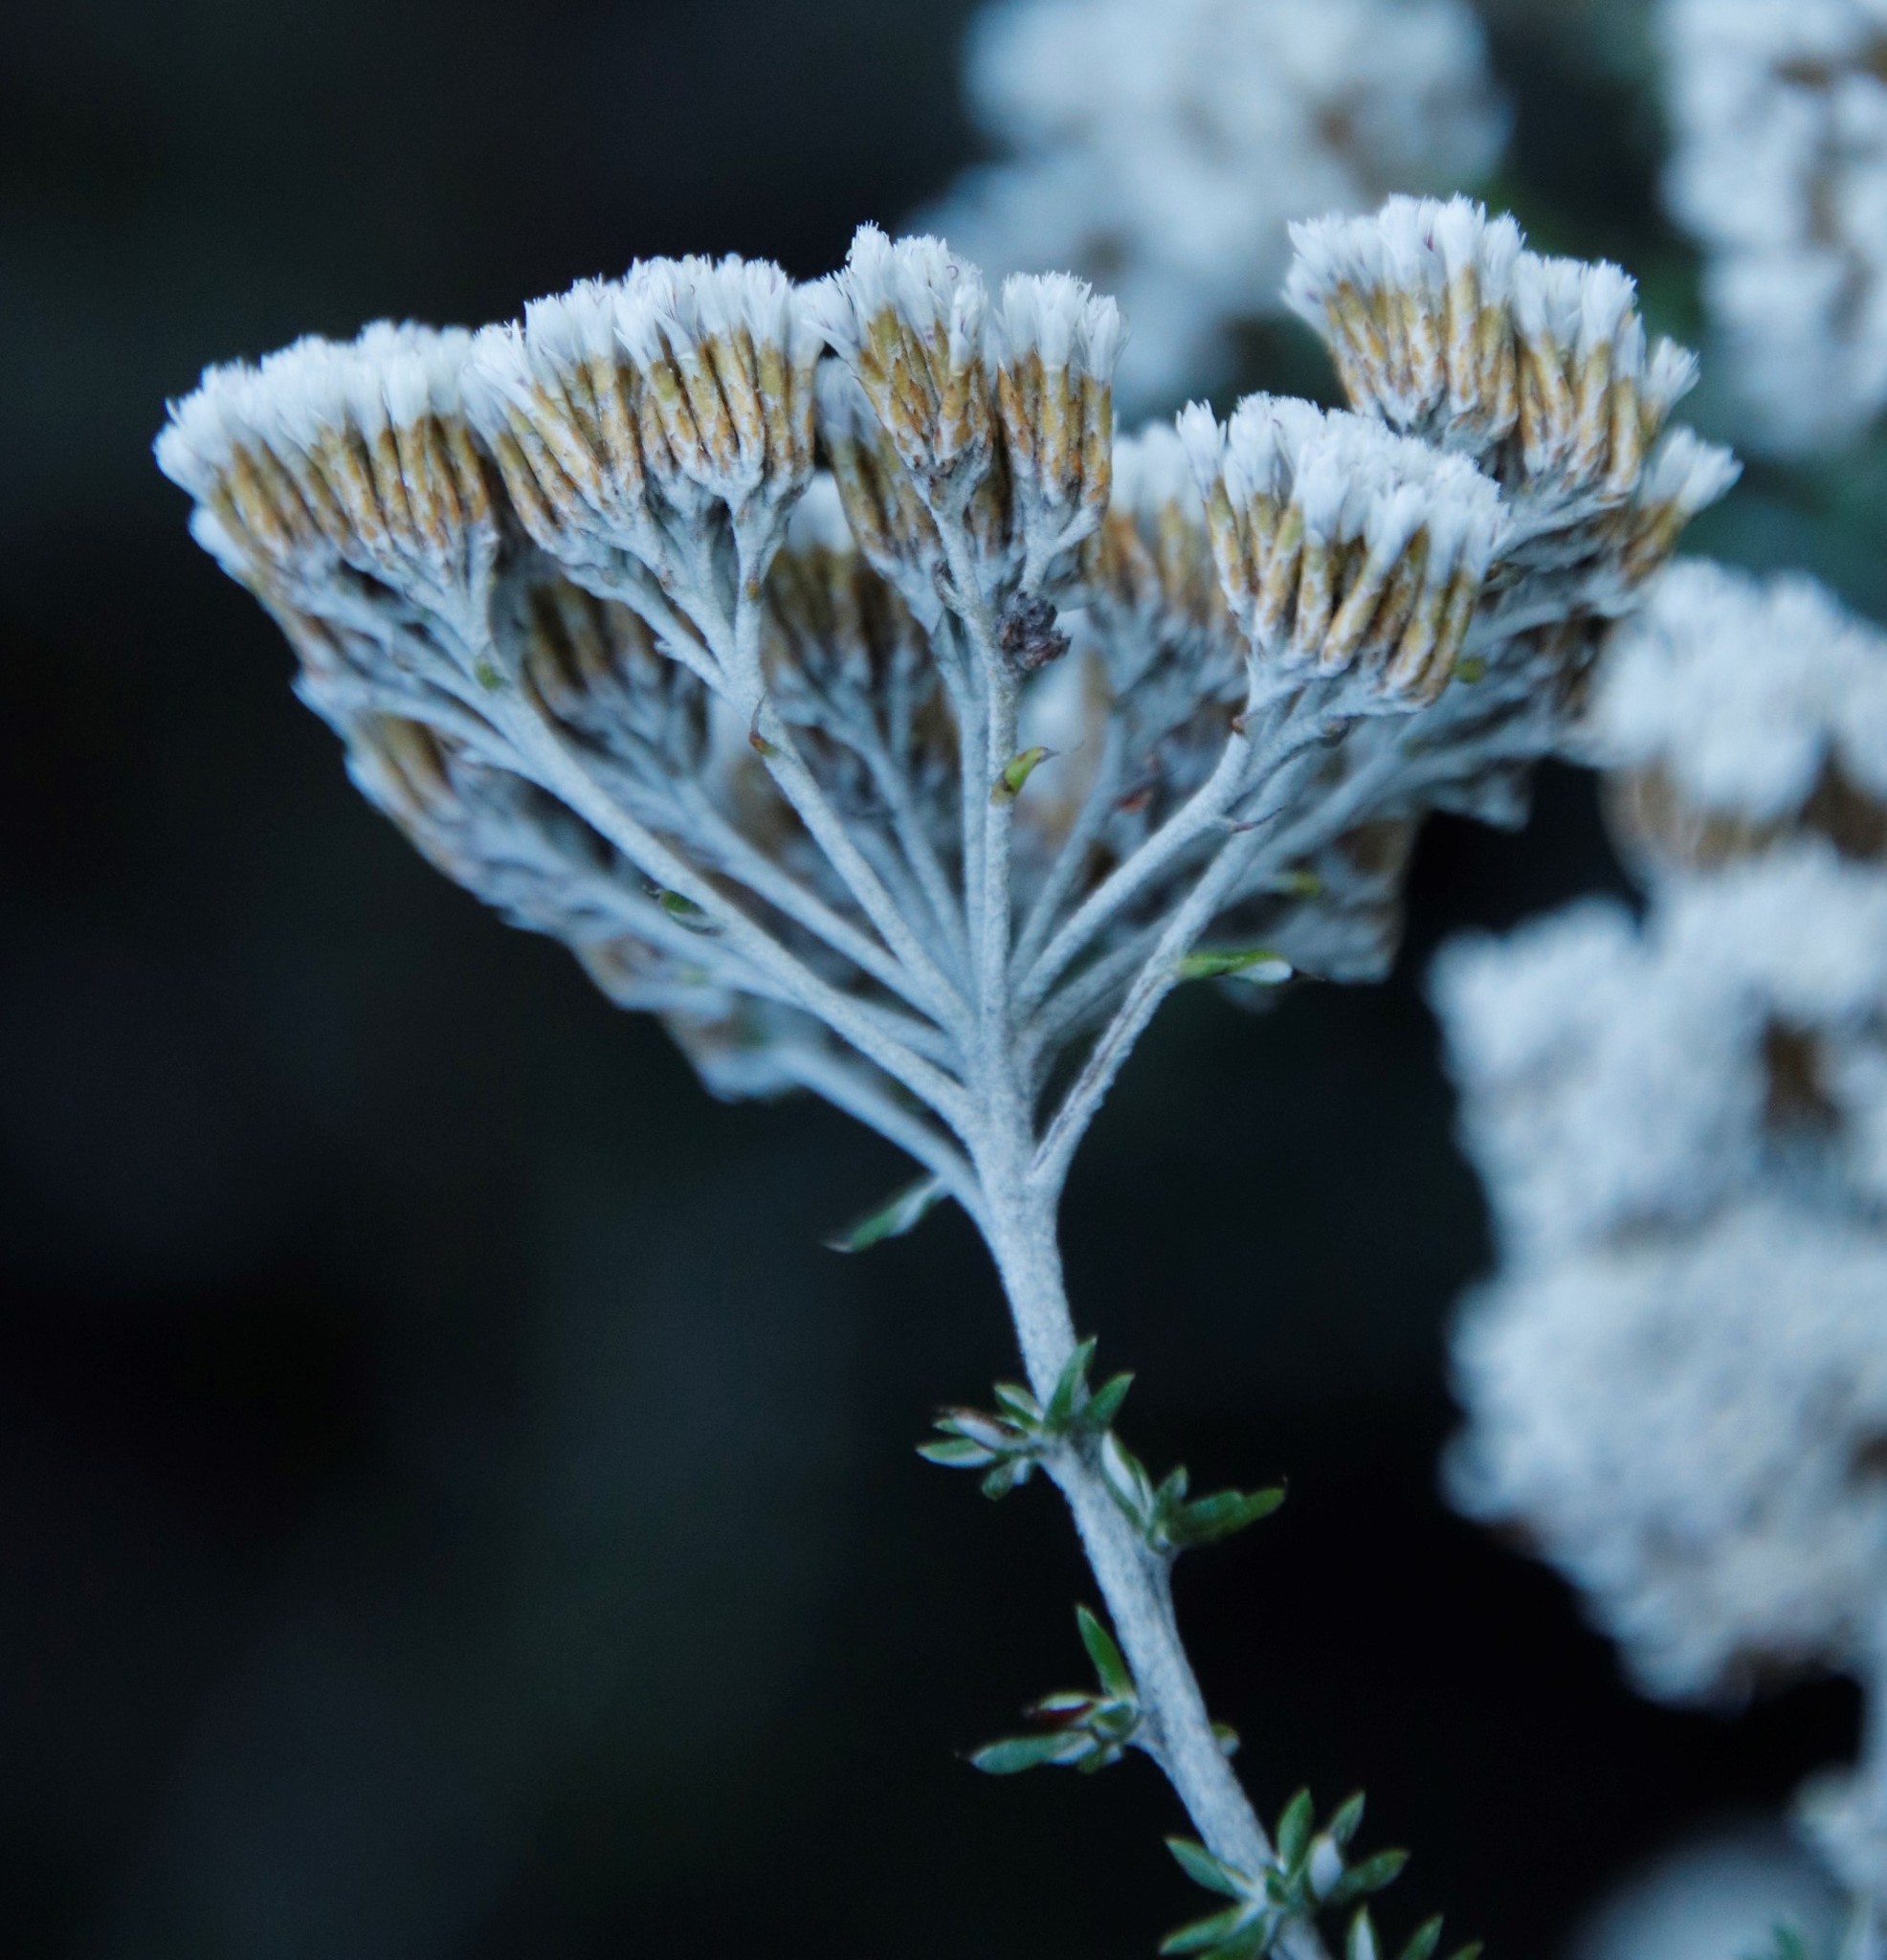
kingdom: Plantae
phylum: Tracheophyta
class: Magnoliopsida
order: Asterales
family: Asteraceae
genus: Metalasia
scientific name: Metalasia densa
